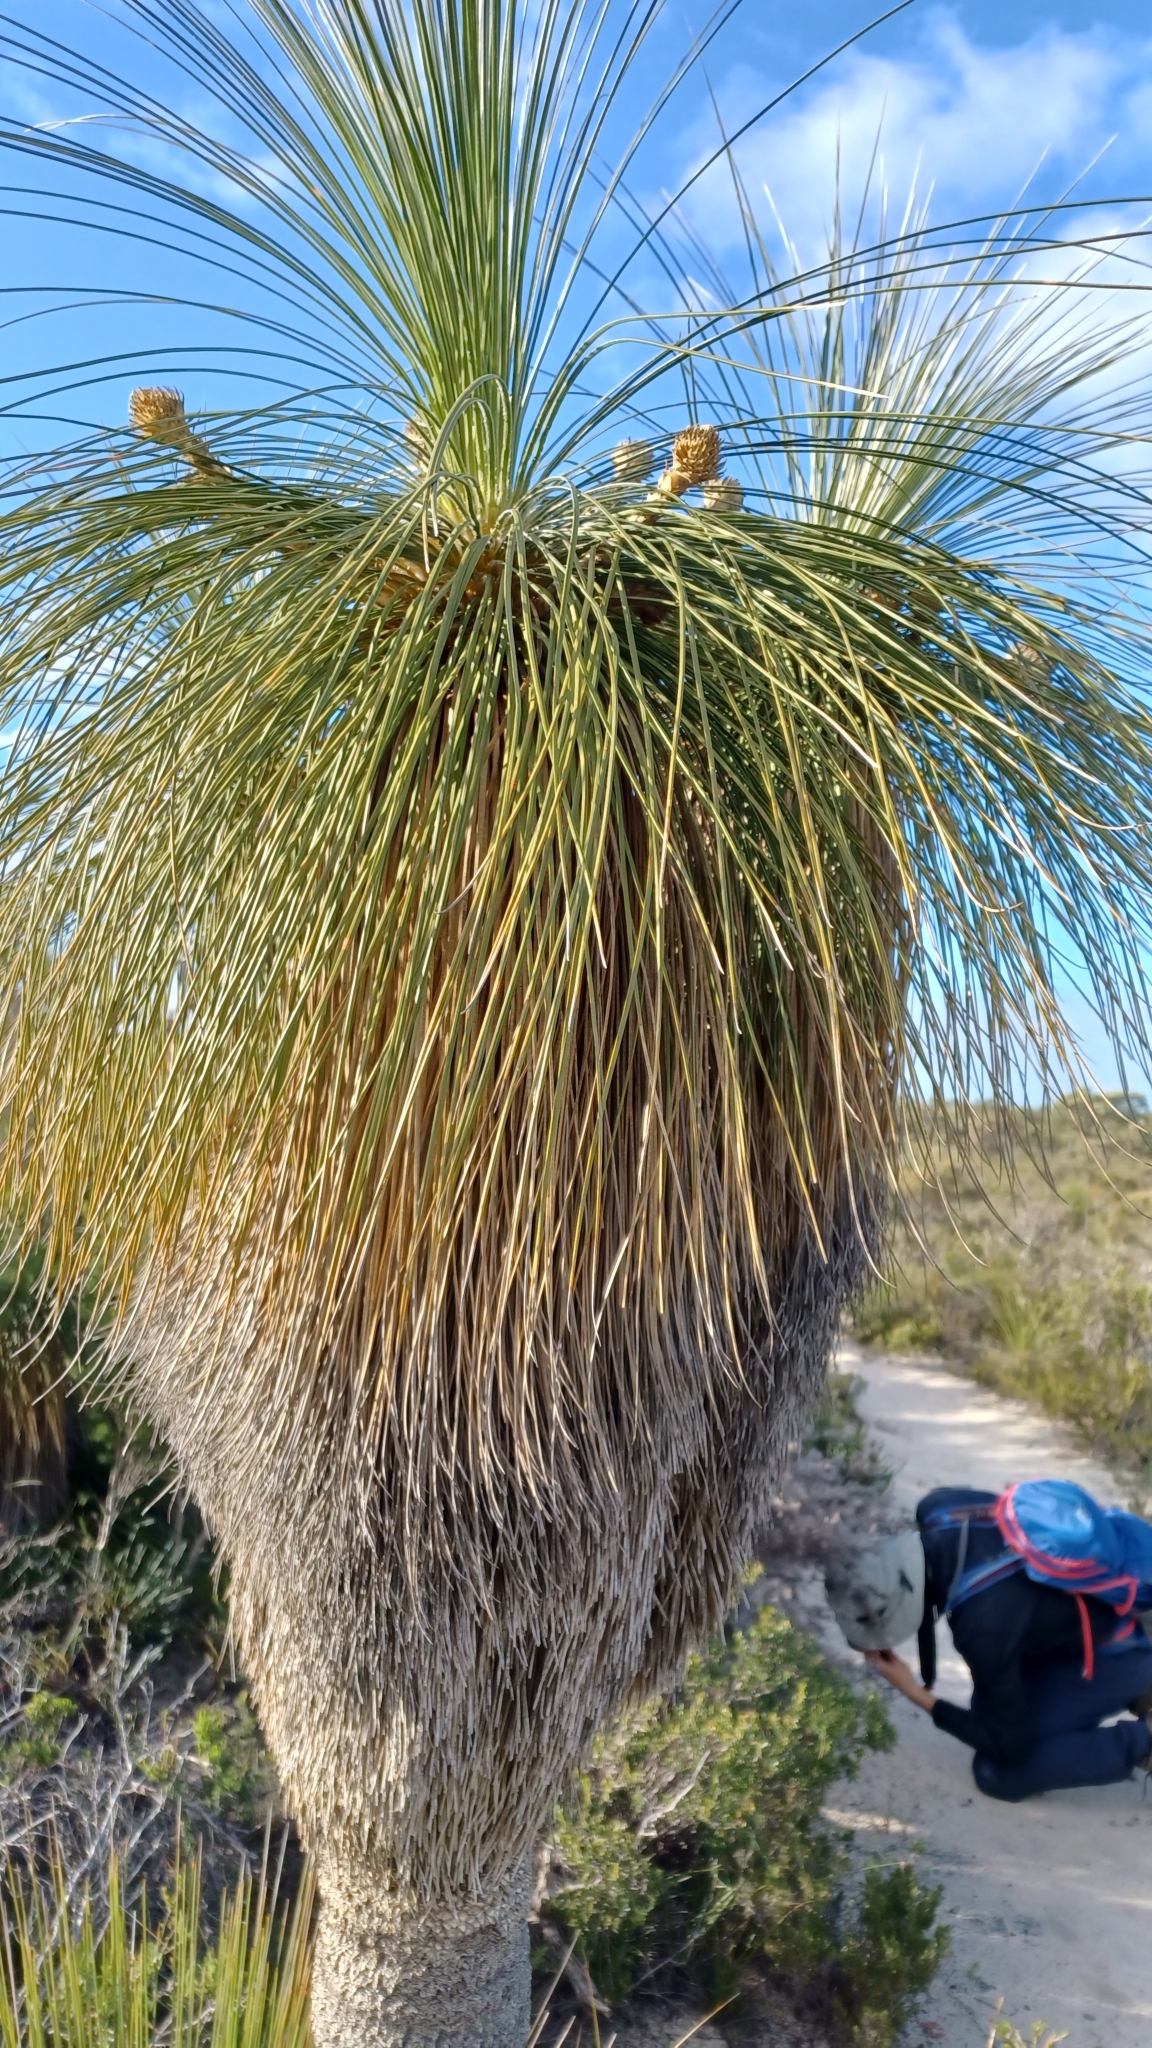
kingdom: Plantae
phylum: Tracheophyta
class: Liliopsida
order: Arecales
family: Dasypogonaceae
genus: Kingia
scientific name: Kingia australis
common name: Black gin
